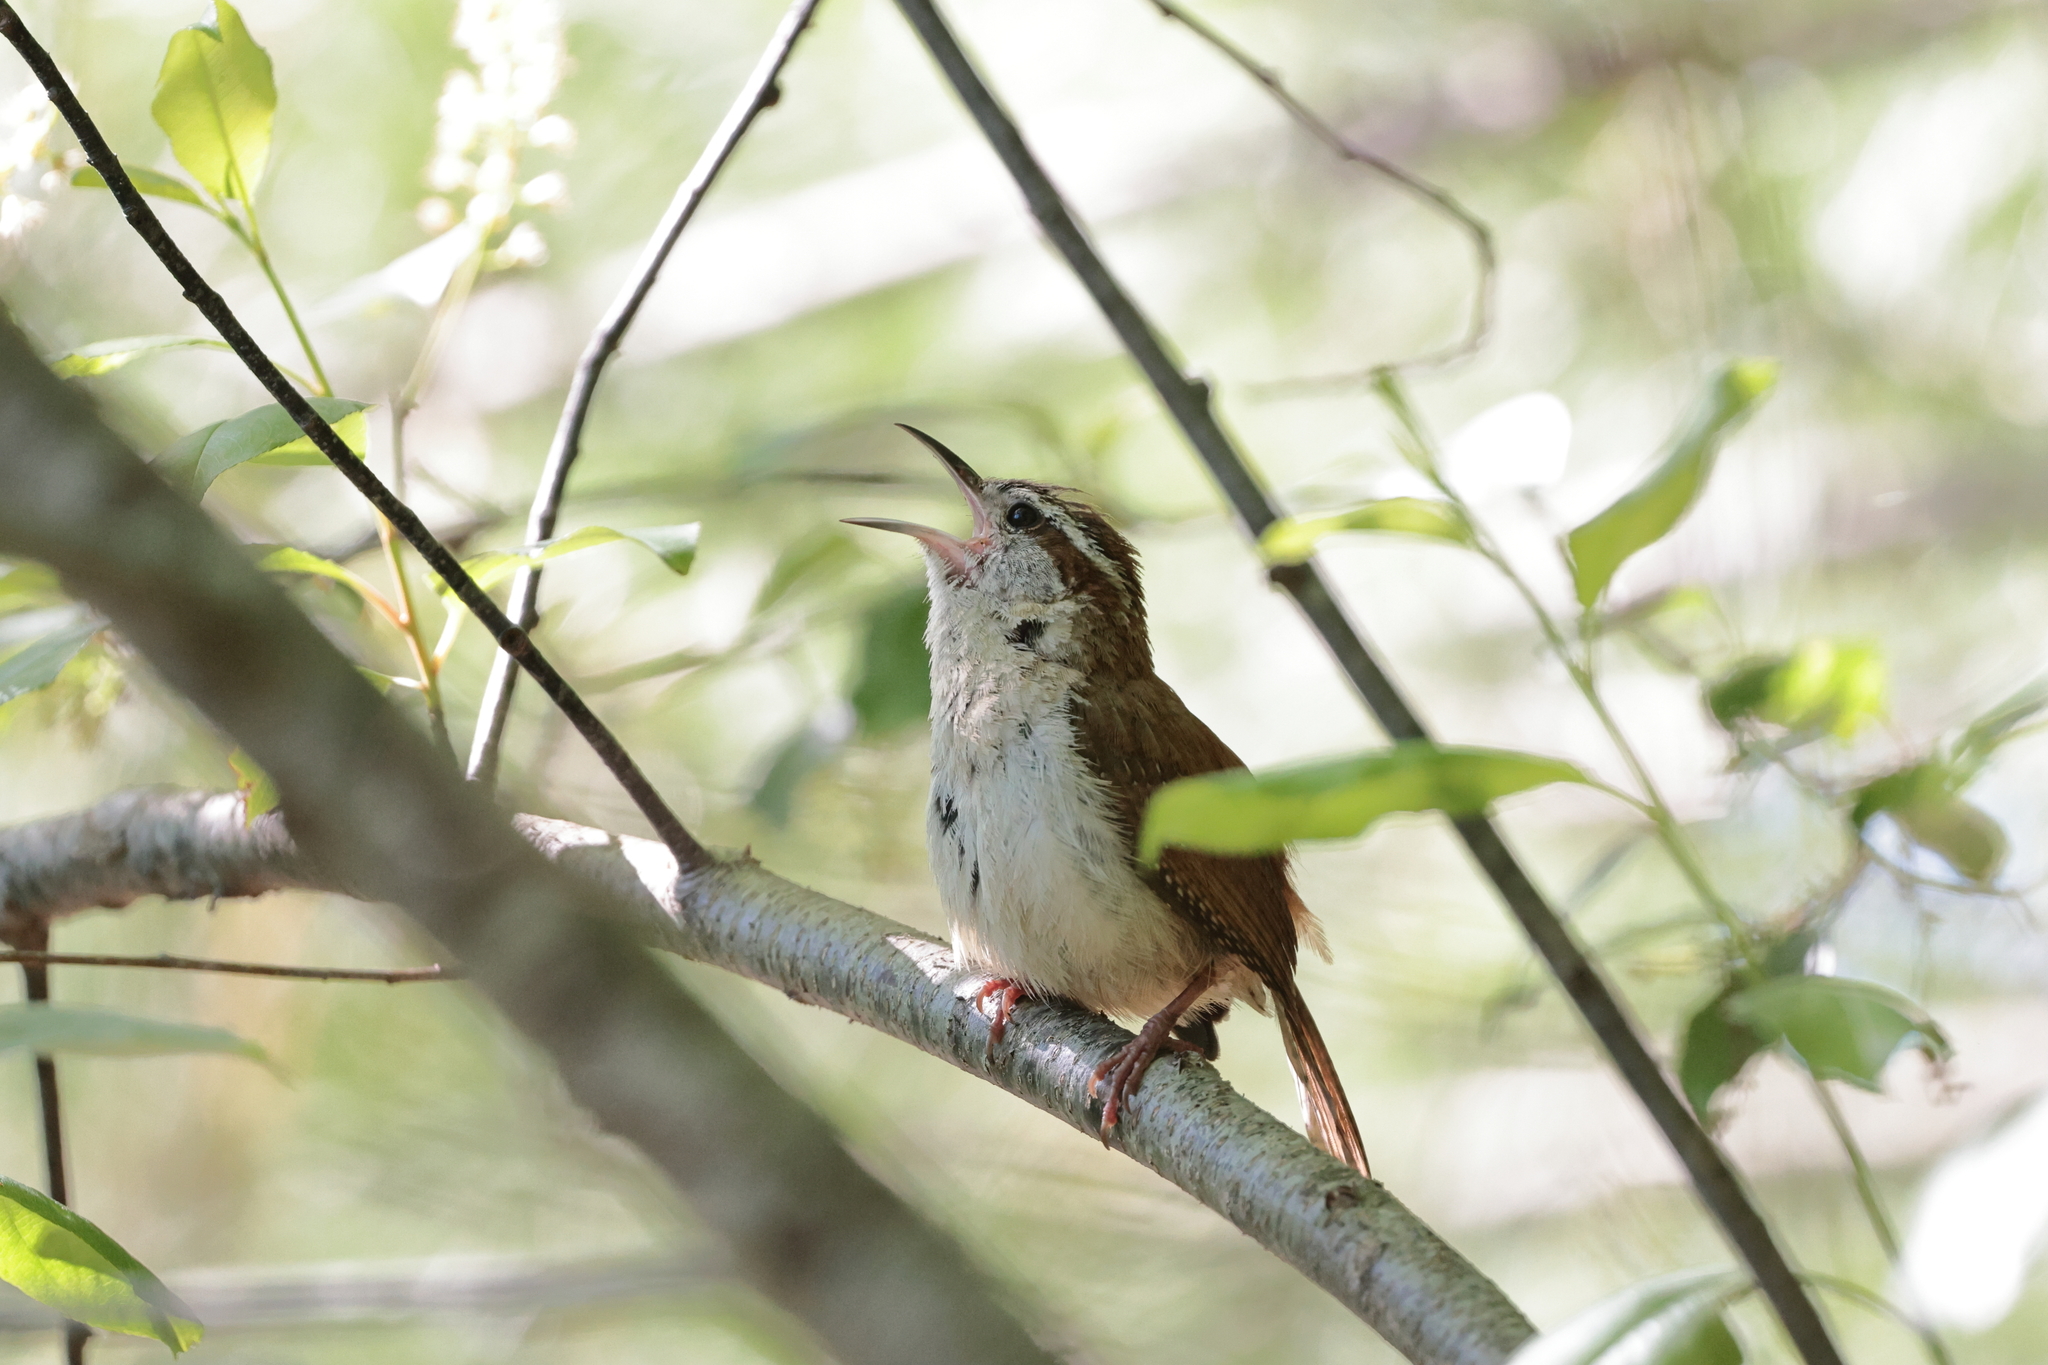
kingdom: Animalia
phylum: Chordata
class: Aves
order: Passeriformes
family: Troglodytidae
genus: Thryothorus
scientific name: Thryothorus ludovicianus
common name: Carolina wren
